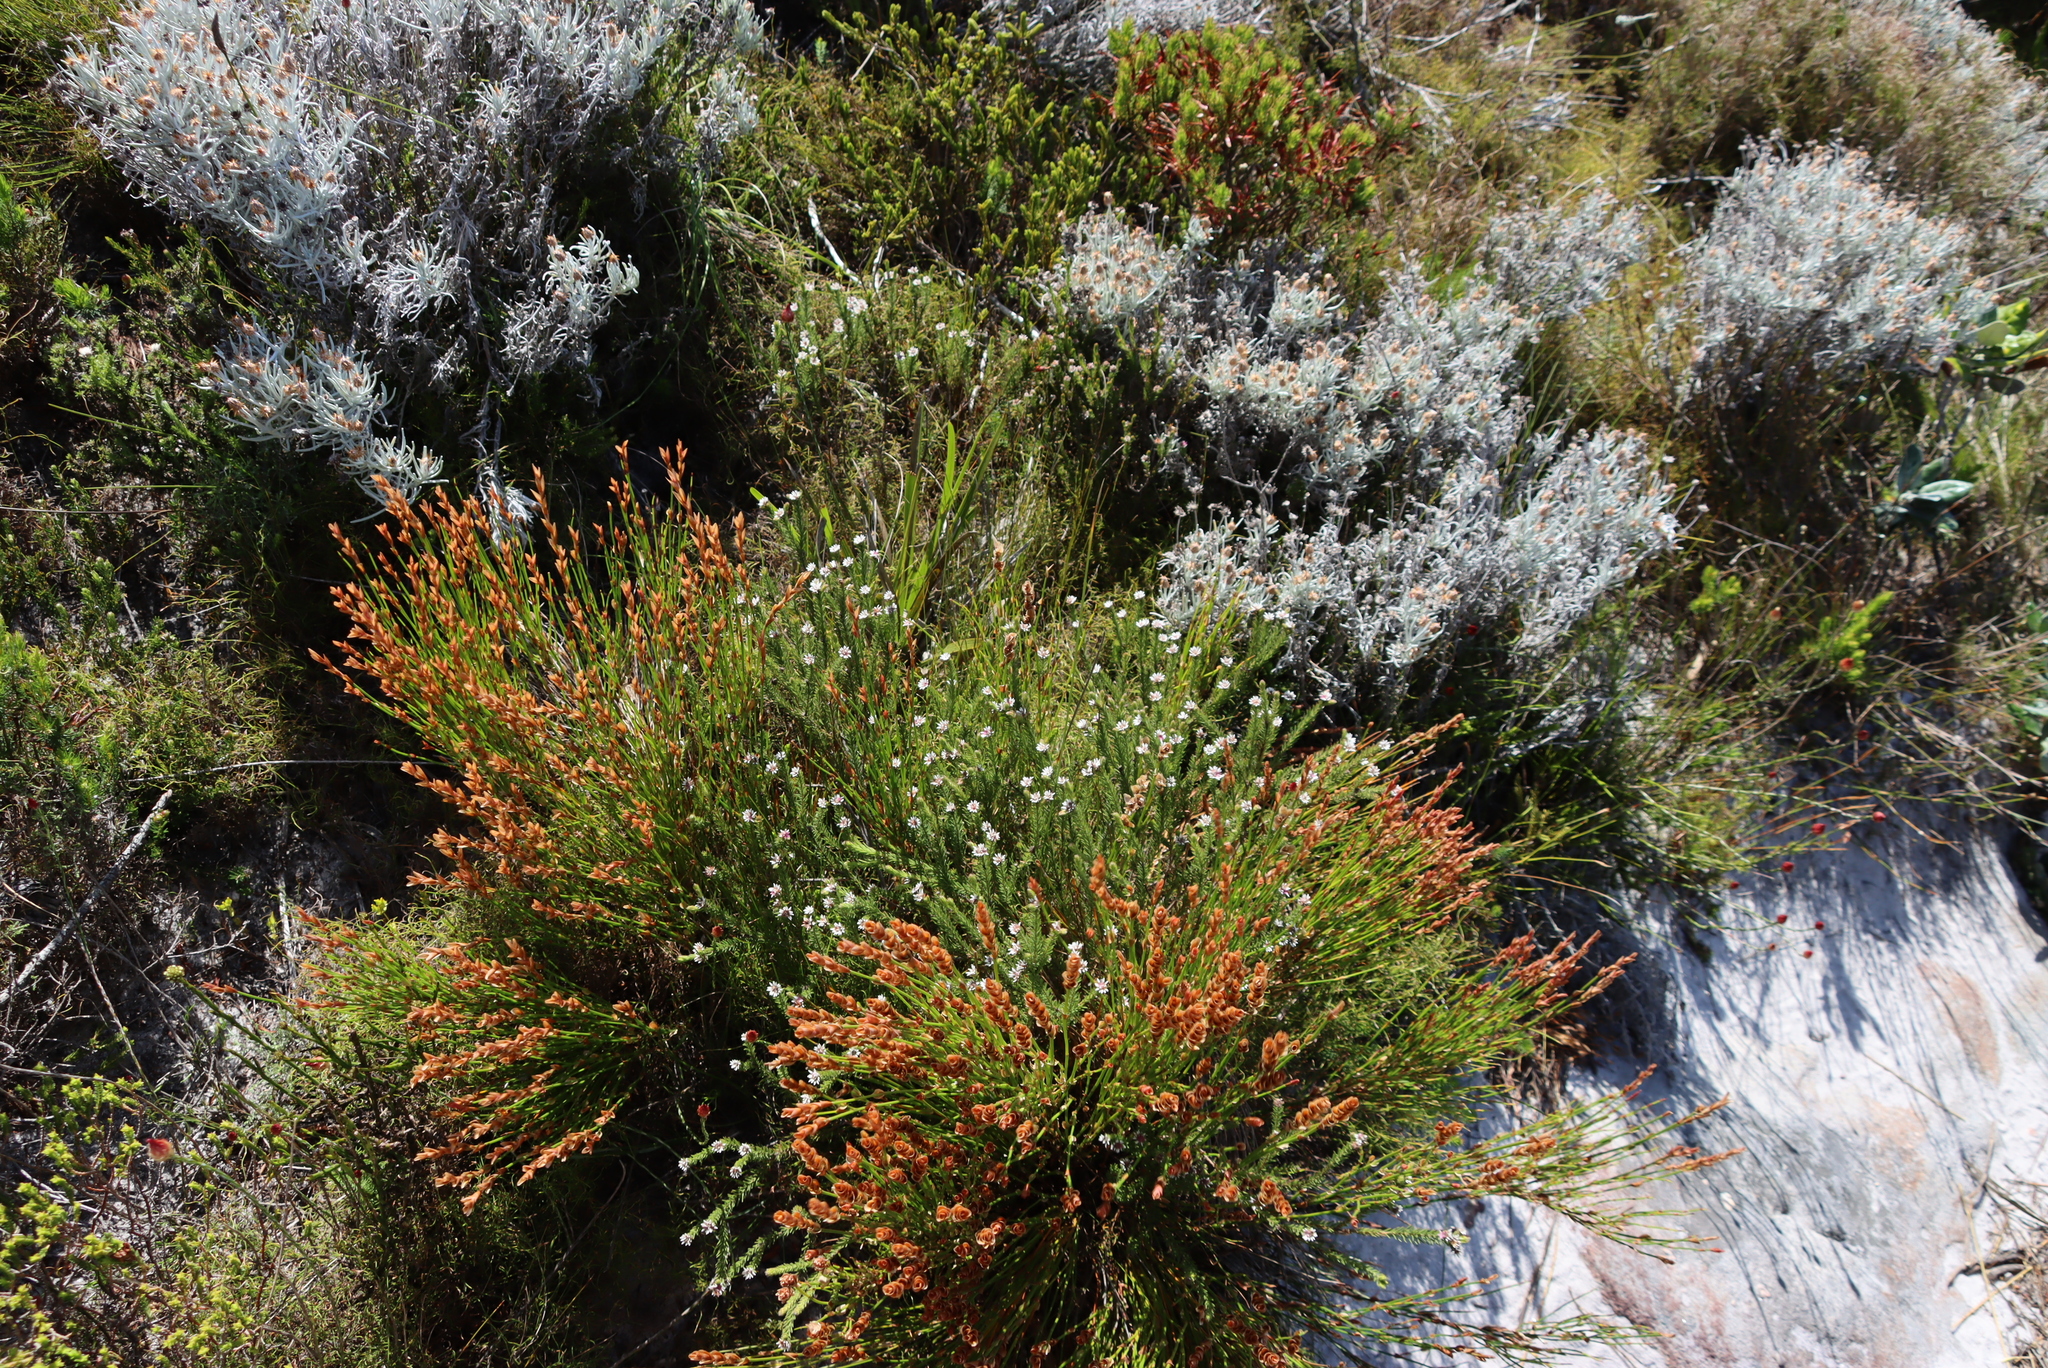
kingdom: Plantae
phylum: Tracheophyta
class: Magnoliopsida
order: Bruniales
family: Bruniaceae
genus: Staavia
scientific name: Staavia radiata
